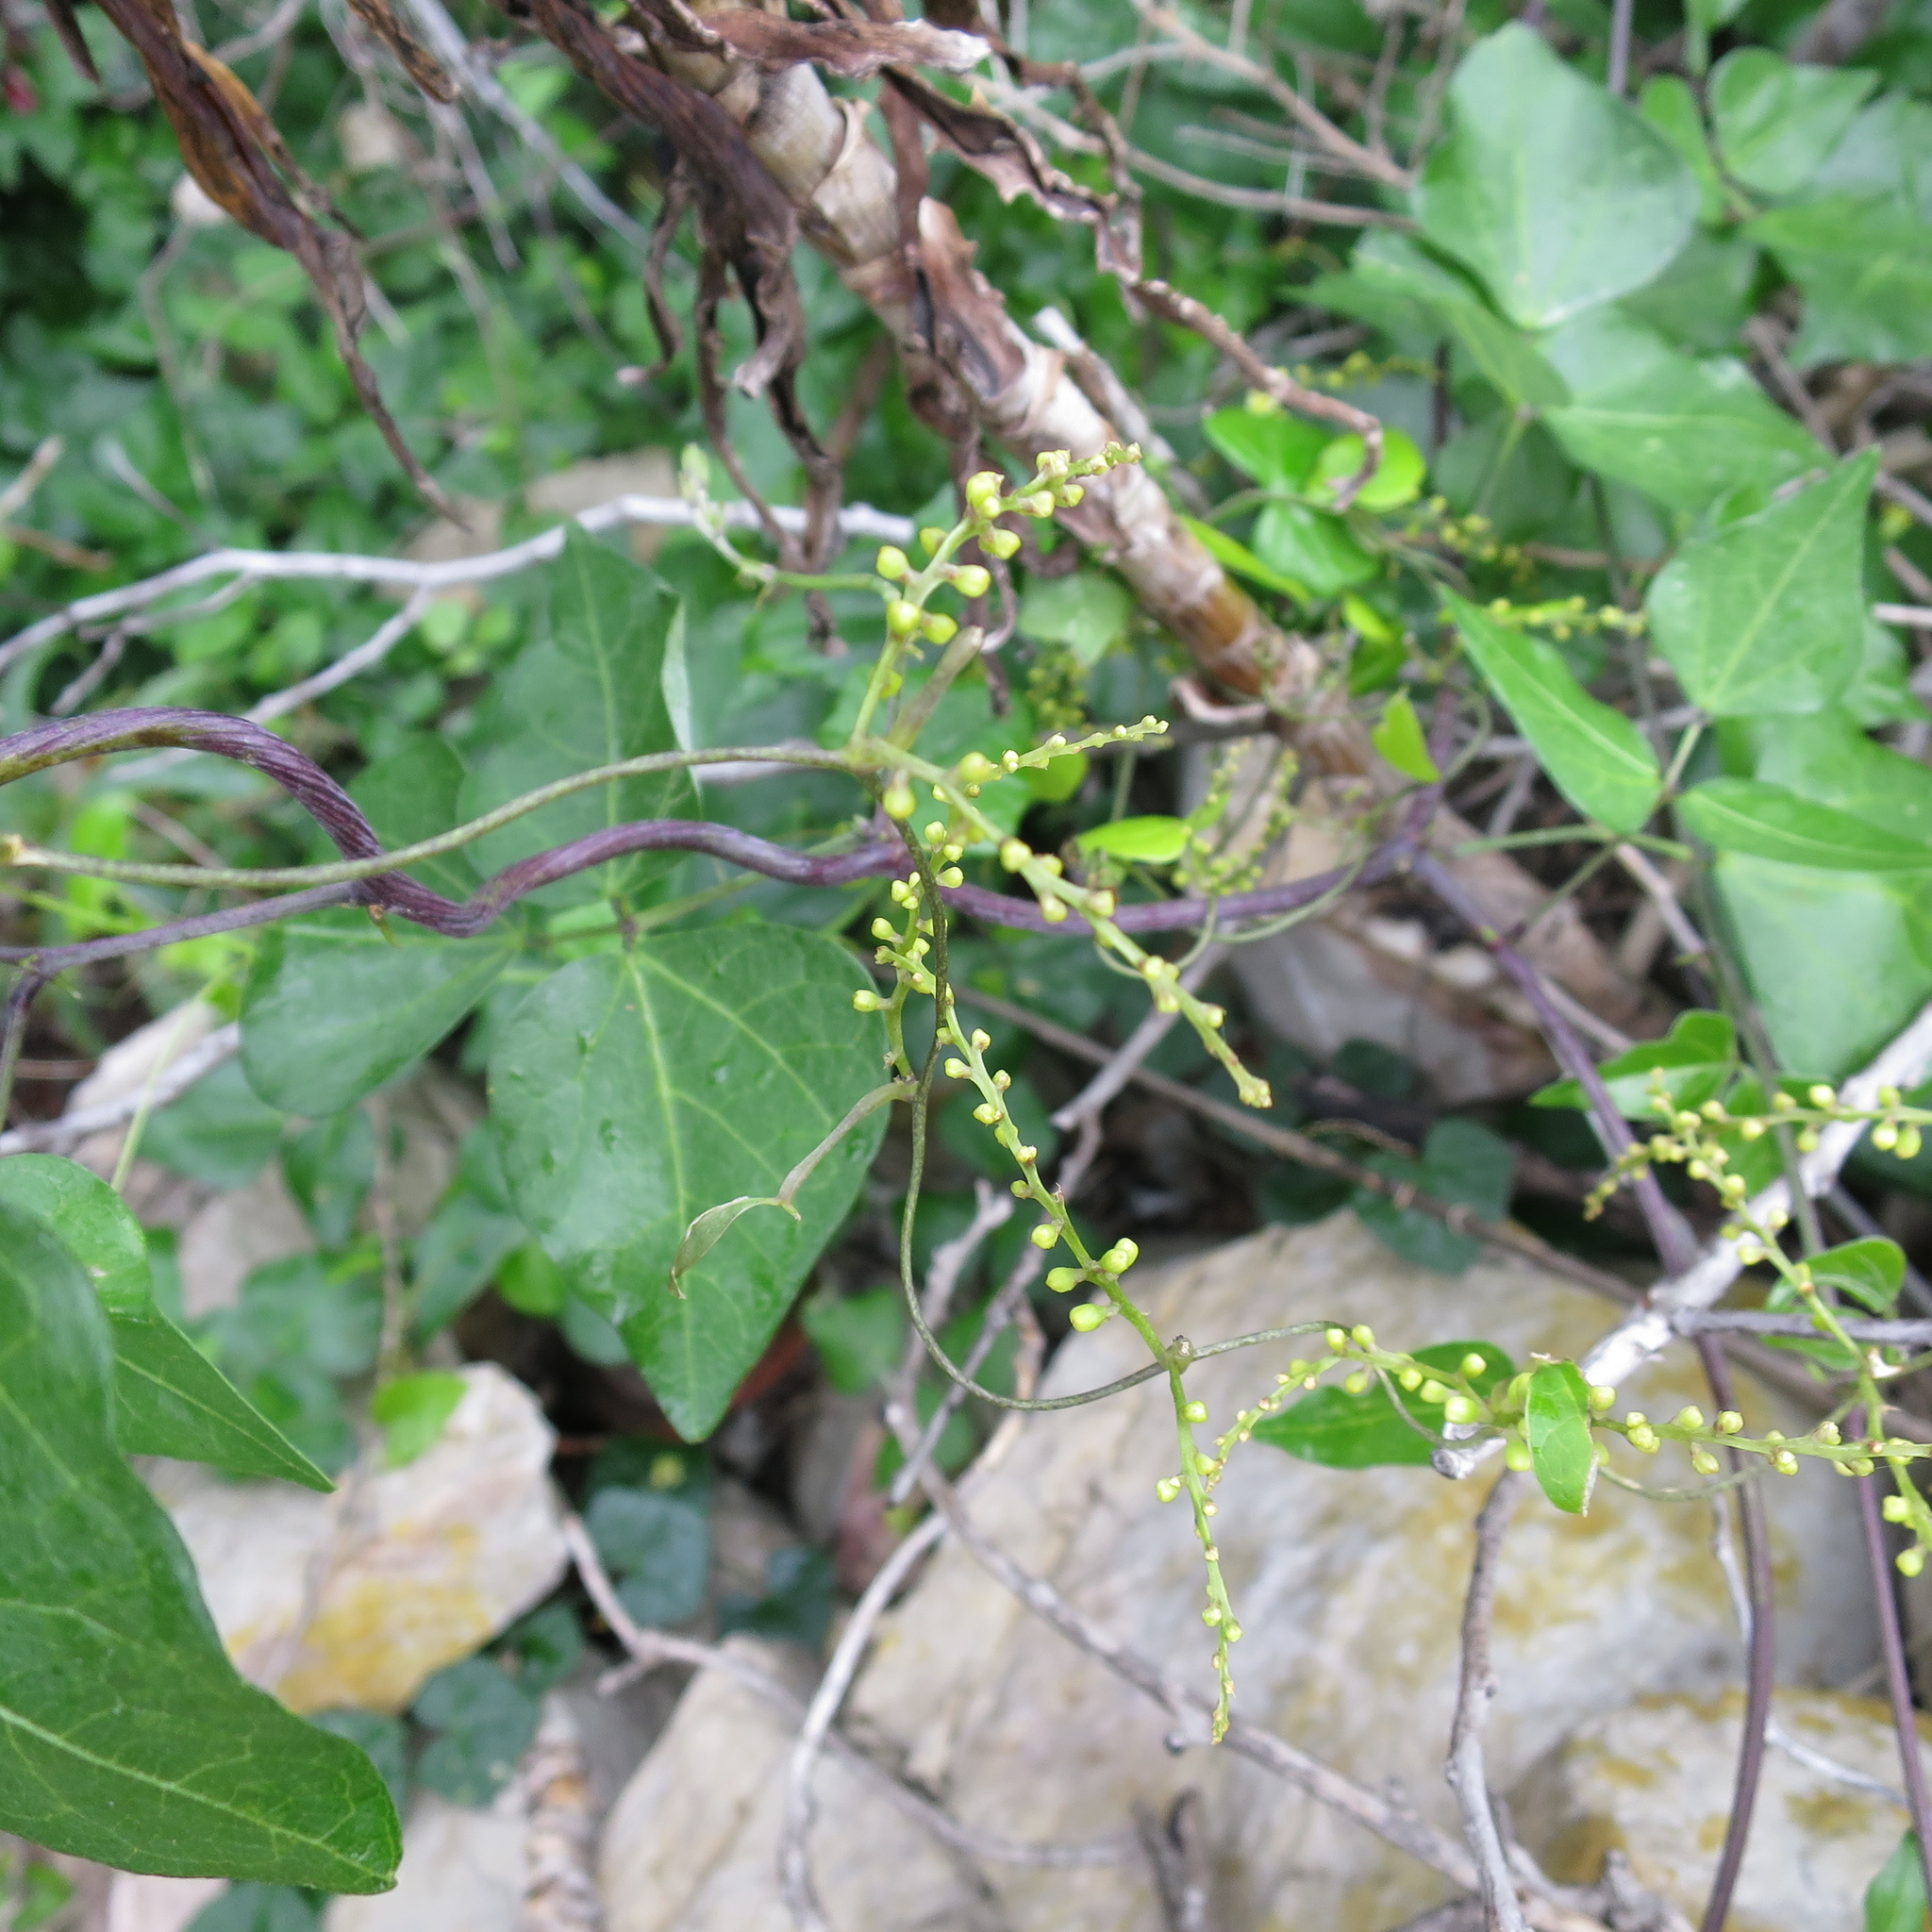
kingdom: Plantae
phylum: Tracheophyta
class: Liliopsida
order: Dioscoreales
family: Dioscoreaceae
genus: Dioscorea
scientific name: Dioscorea mundii
